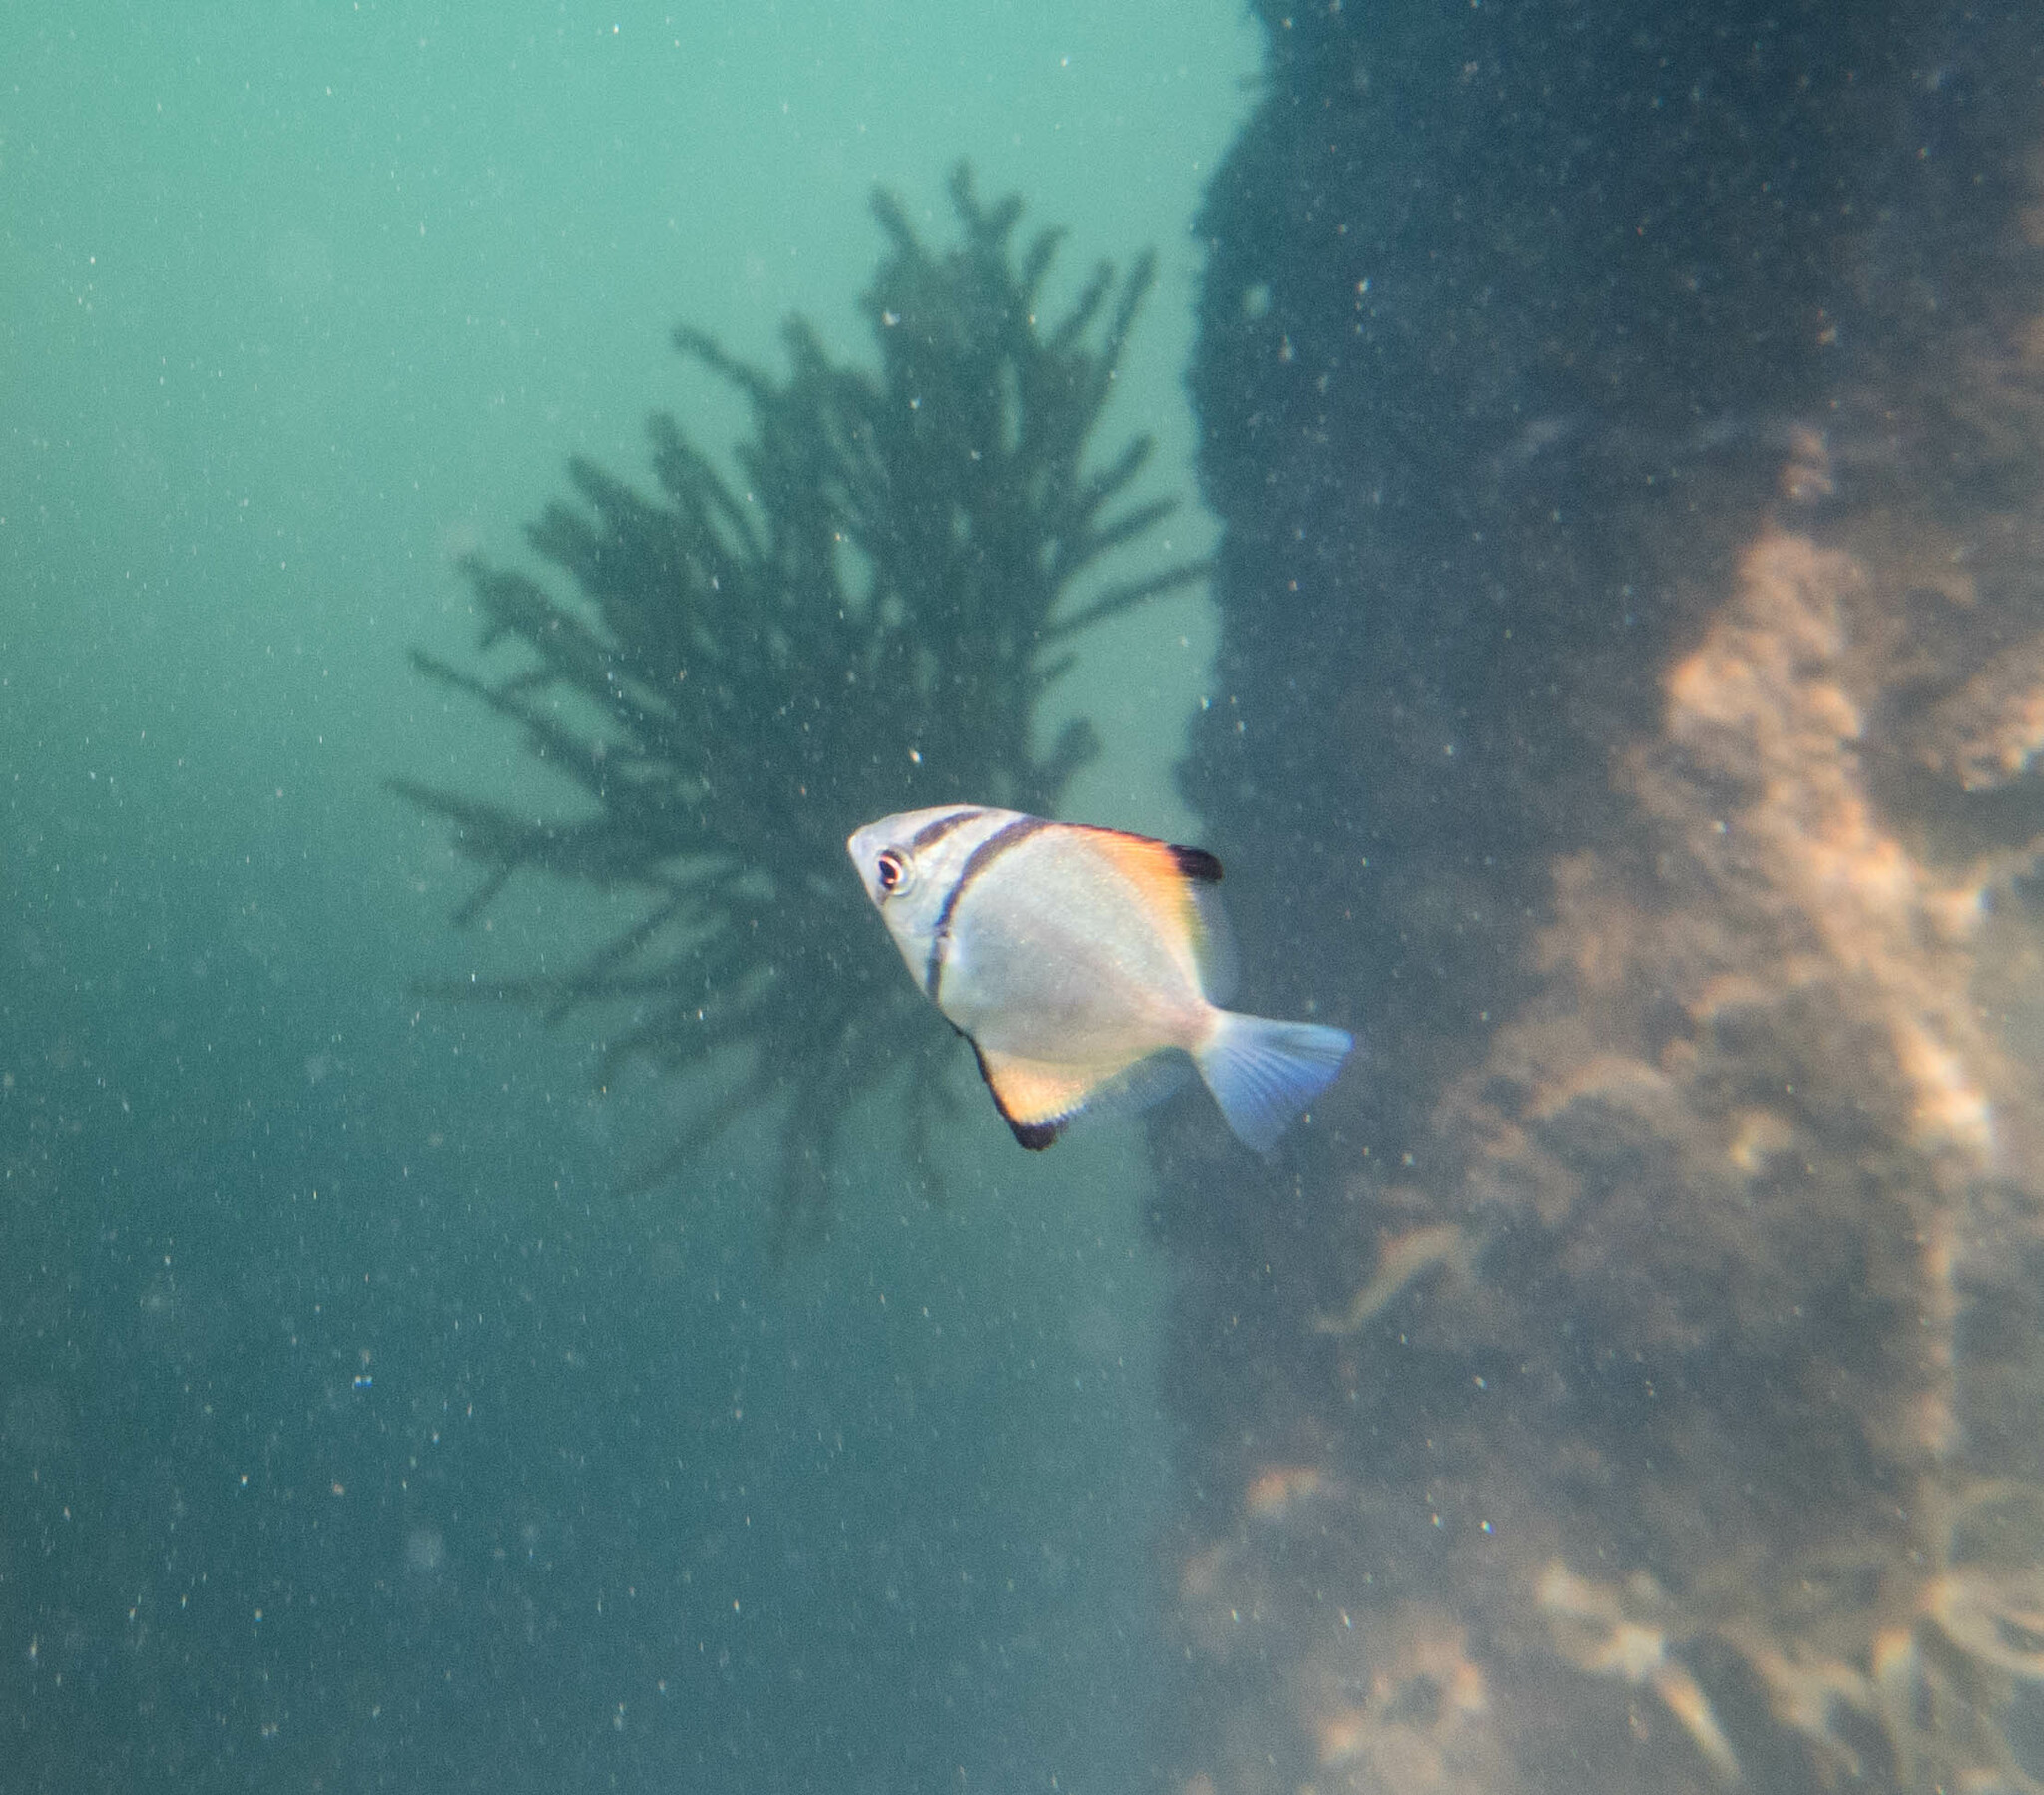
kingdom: Animalia
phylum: Chordata
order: Perciformes
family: Monodactylidae
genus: Monodactylus
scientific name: Monodactylus argenteus
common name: Silver moony
